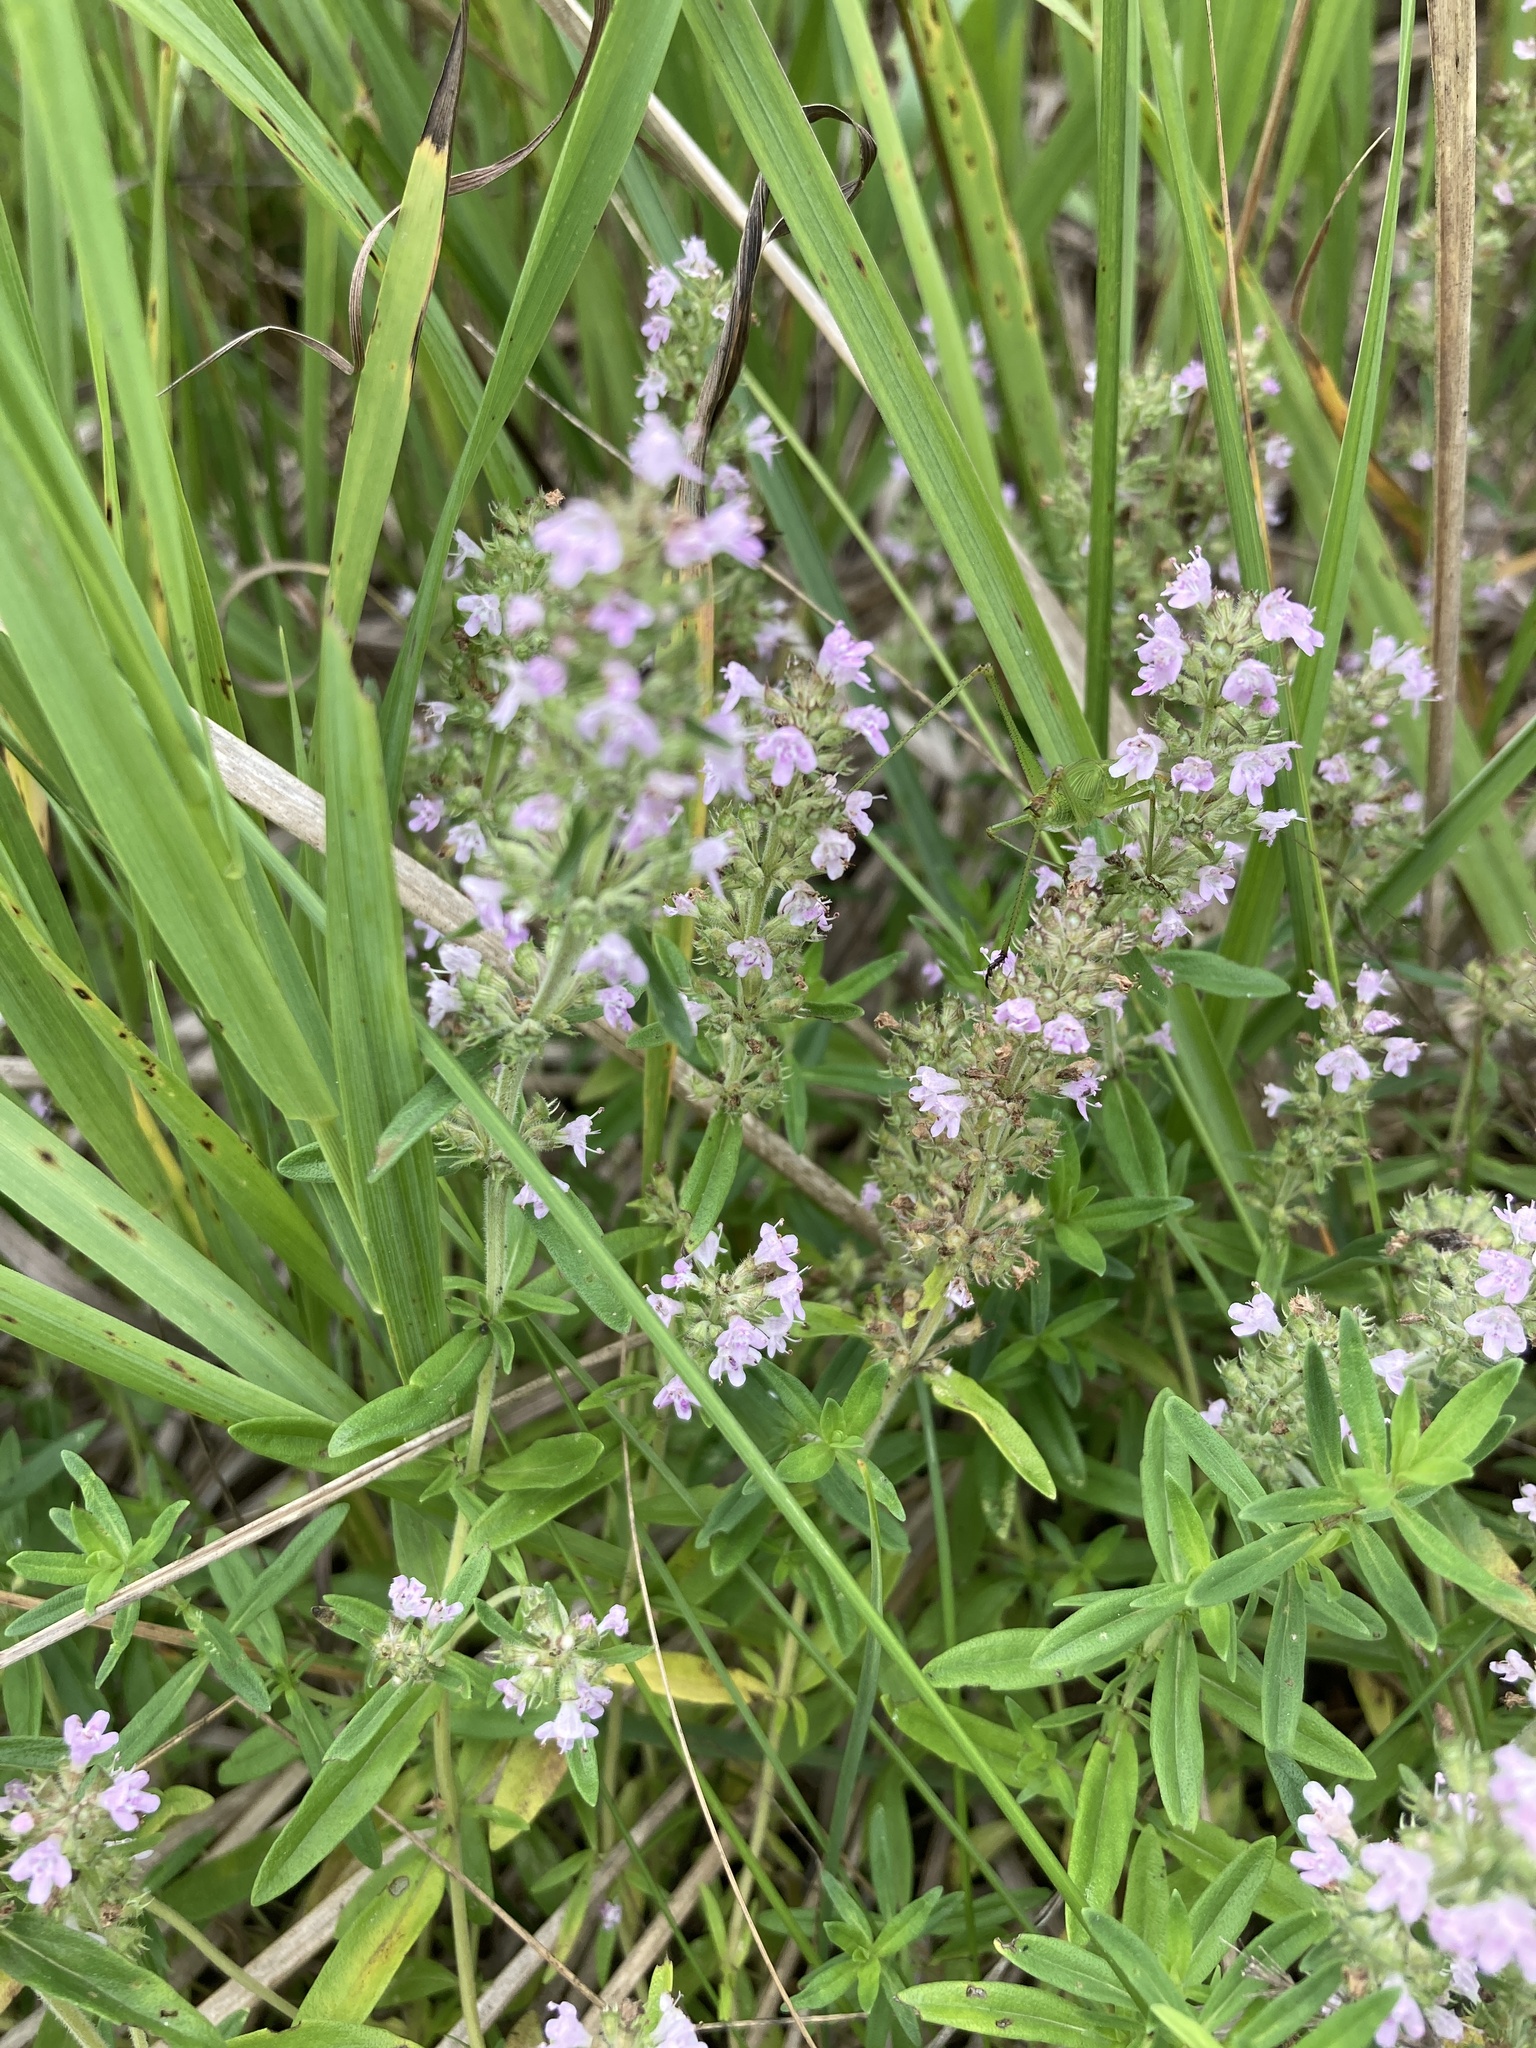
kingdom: Plantae
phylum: Tracheophyta
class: Magnoliopsida
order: Lamiales
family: Lamiaceae
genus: Thymus
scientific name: Thymus pannonicus
